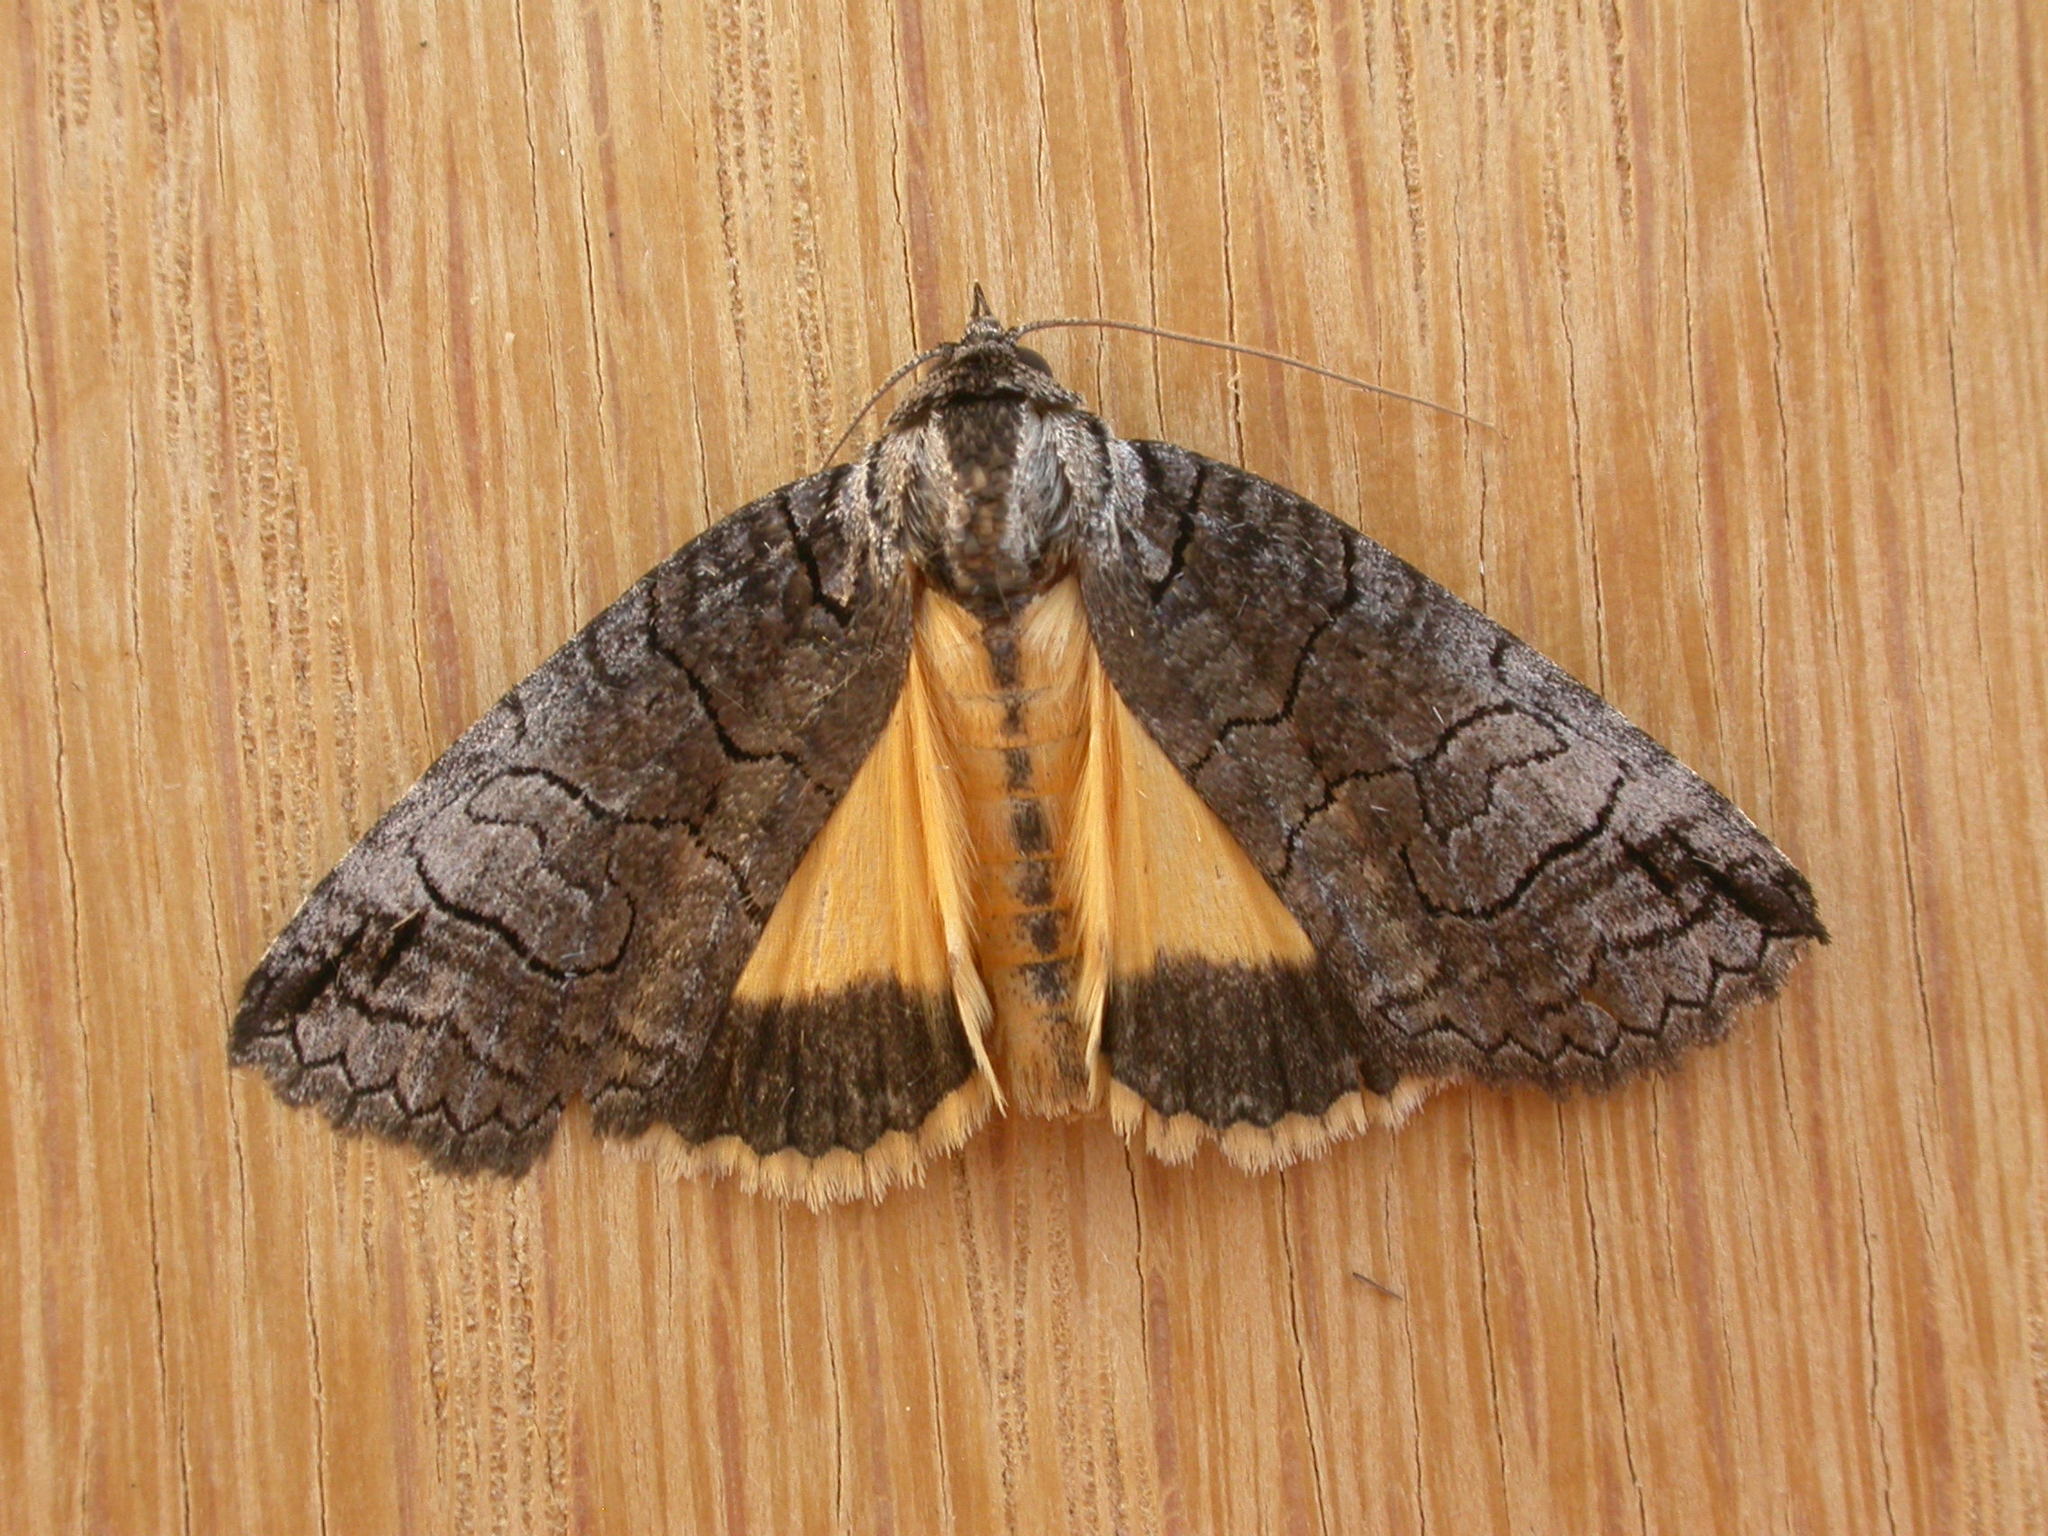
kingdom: Animalia
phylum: Arthropoda
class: Insecta
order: Lepidoptera
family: Erebidae
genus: Prorocopis
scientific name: Prorocopis euxantha
